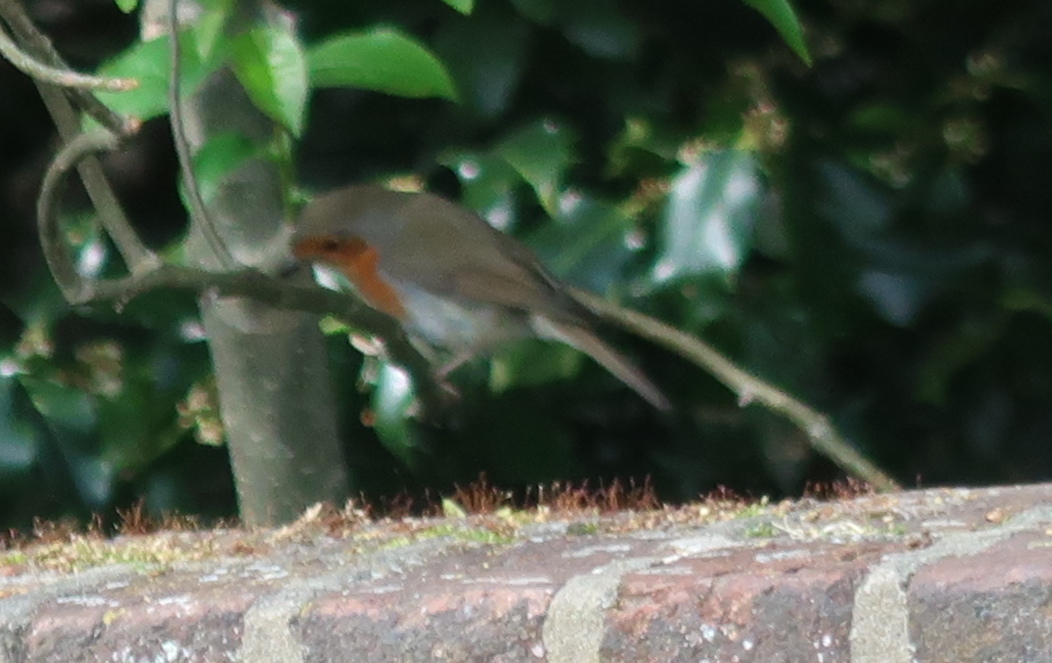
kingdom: Animalia
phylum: Chordata
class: Aves
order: Passeriformes
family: Muscicapidae
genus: Erithacus
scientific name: Erithacus rubecula
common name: European robin
